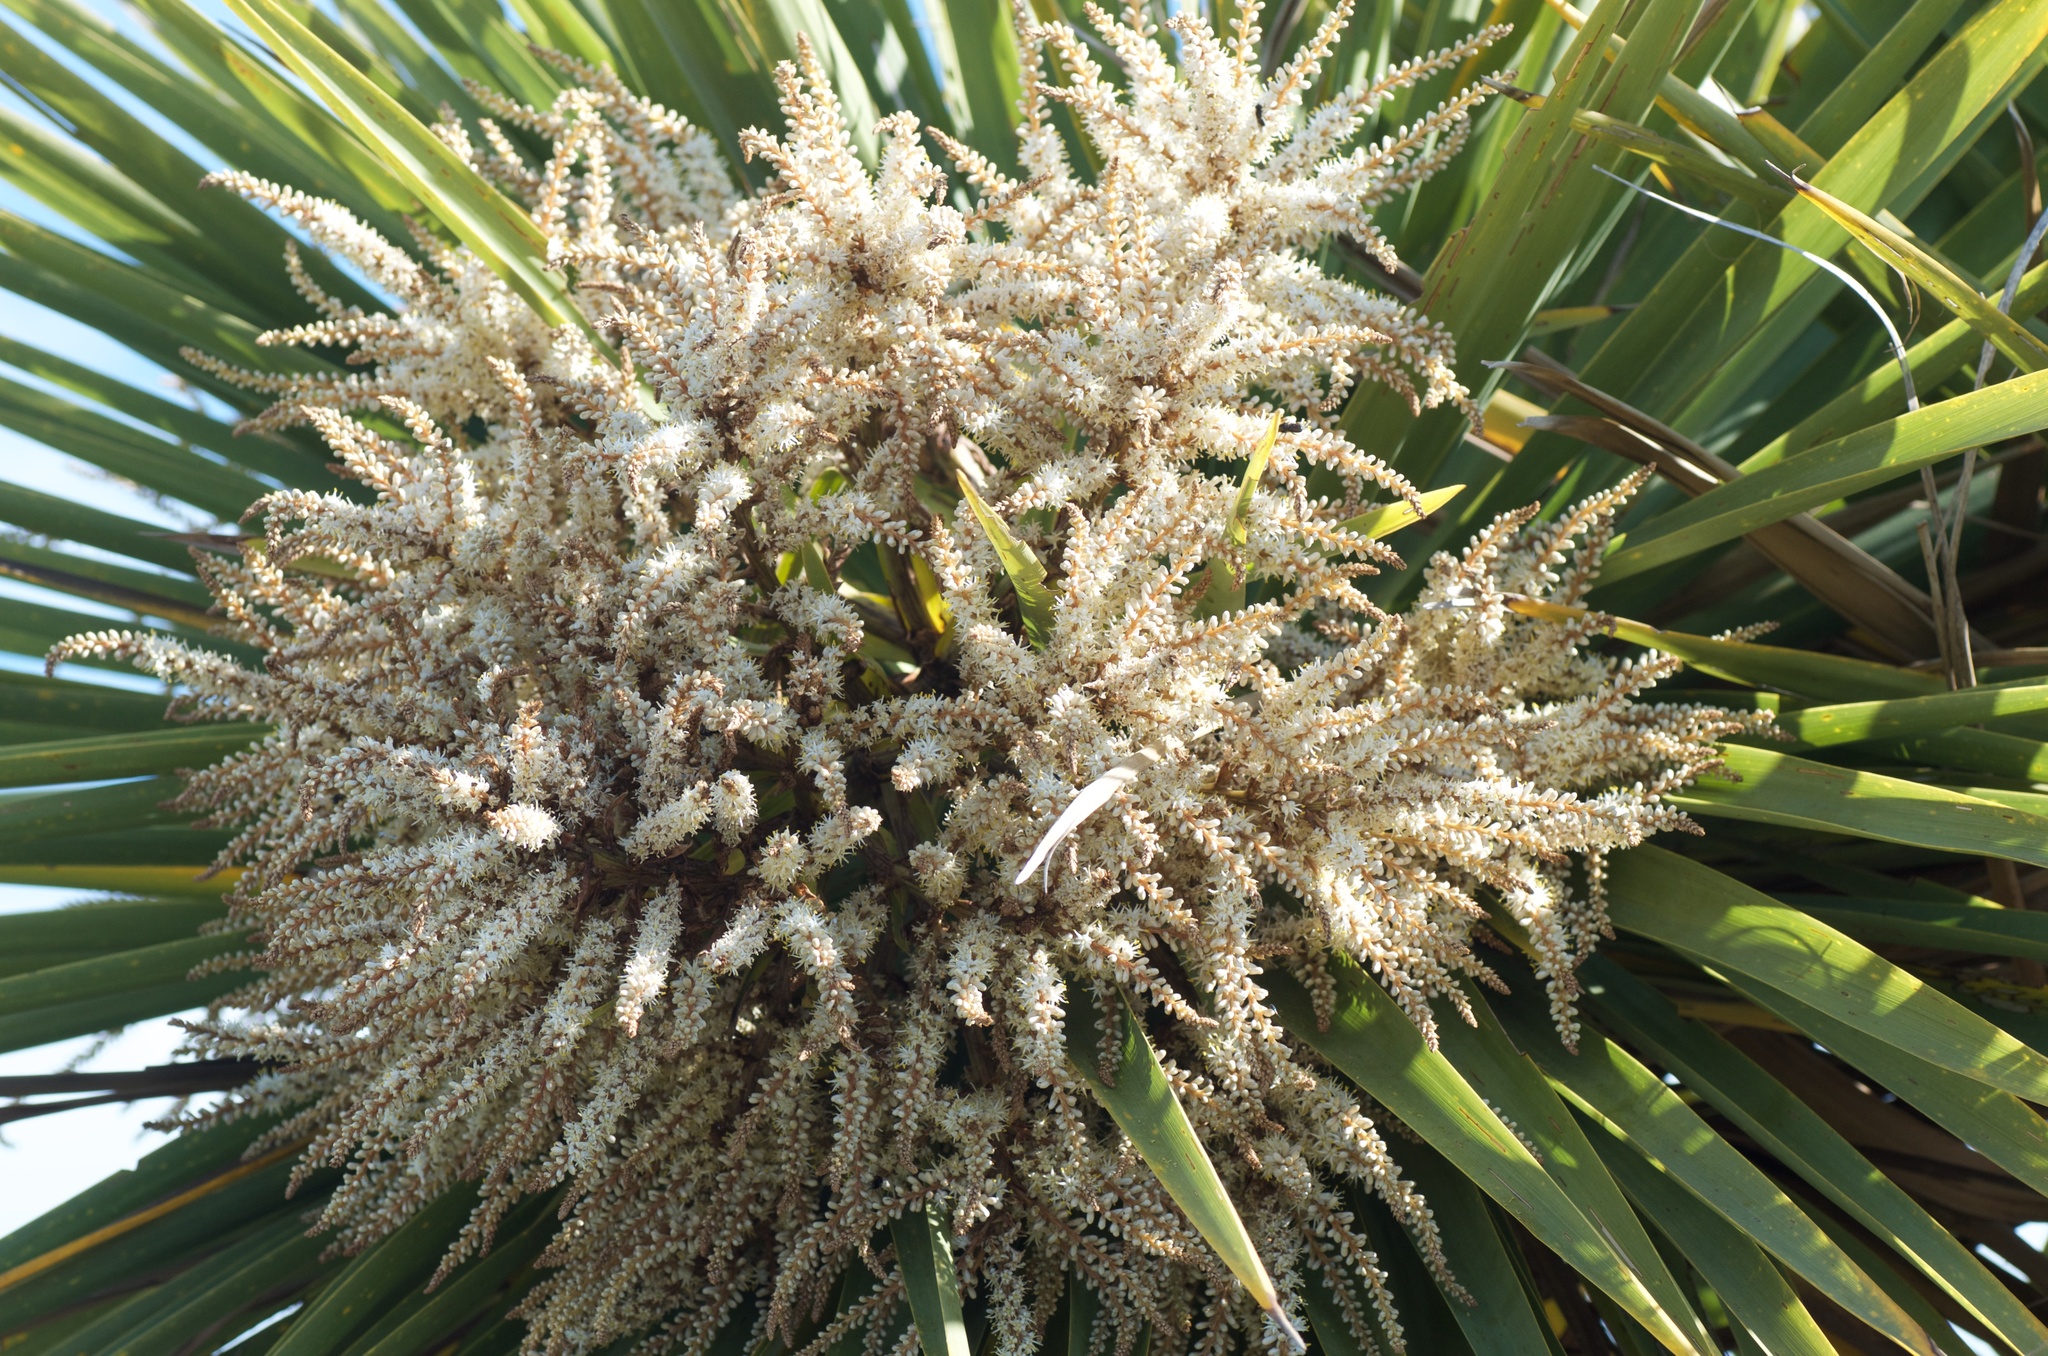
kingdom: Plantae
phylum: Tracheophyta
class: Liliopsida
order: Asparagales
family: Asparagaceae
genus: Cordyline
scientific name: Cordyline australis
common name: Cabbage-palm
